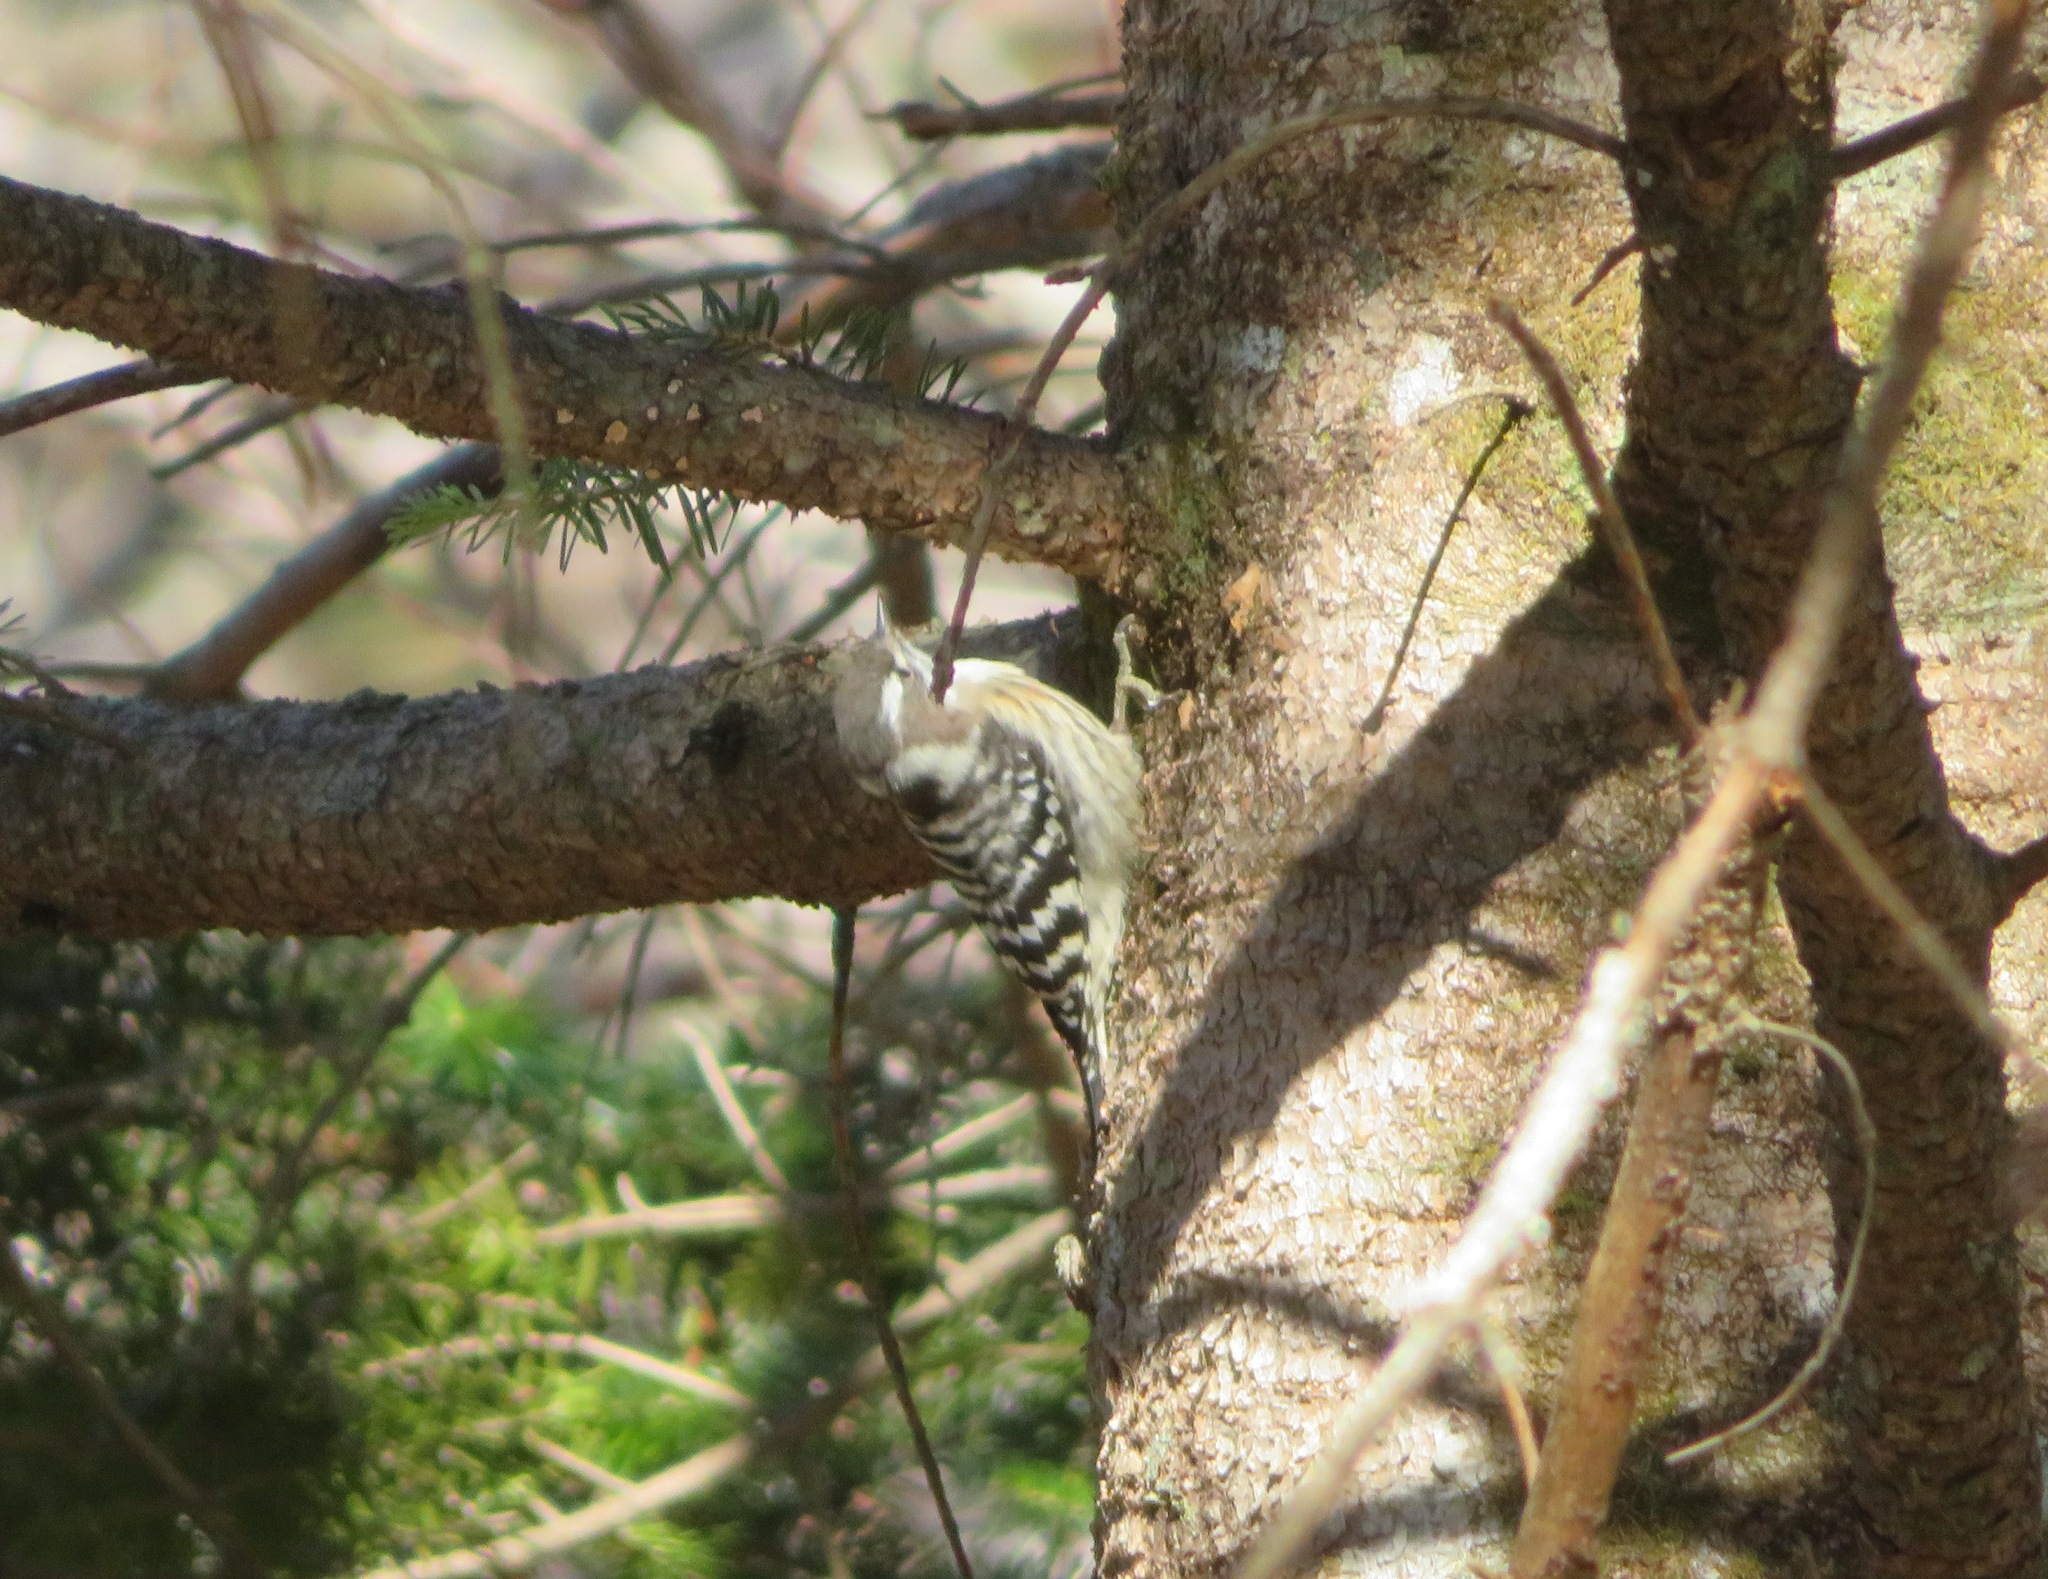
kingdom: Animalia
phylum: Chordata
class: Aves
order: Piciformes
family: Picidae
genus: Yungipicus
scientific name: Yungipicus kizuki
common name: Japanese pygmy woodpecker
